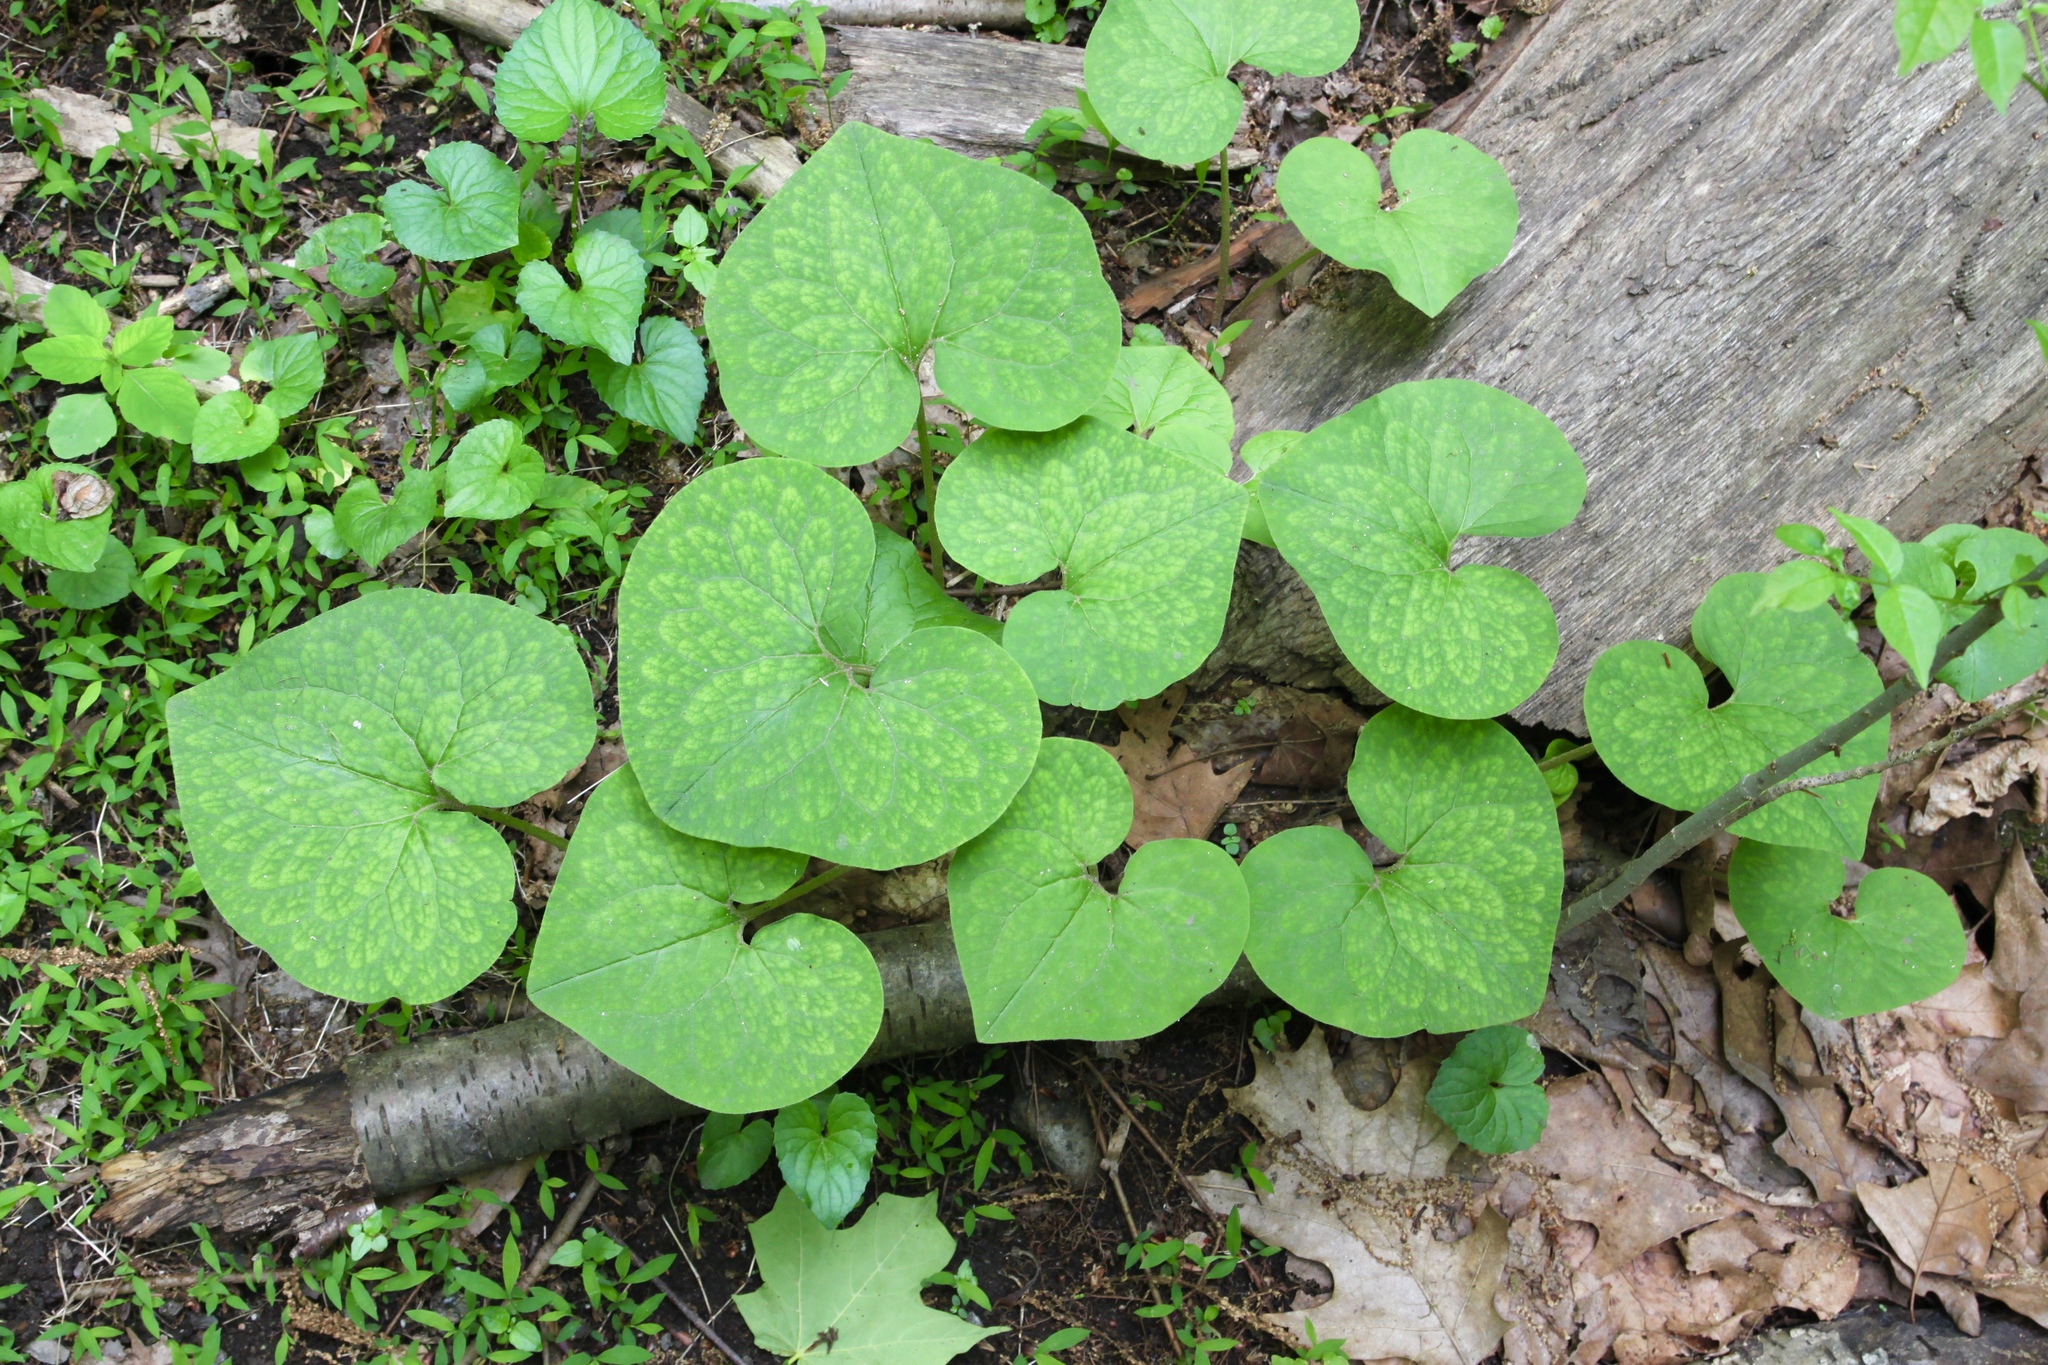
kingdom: Plantae
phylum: Tracheophyta
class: Magnoliopsida
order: Piperales
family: Aristolochiaceae
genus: Asarum
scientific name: Asarum canadense
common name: Wild ginger
